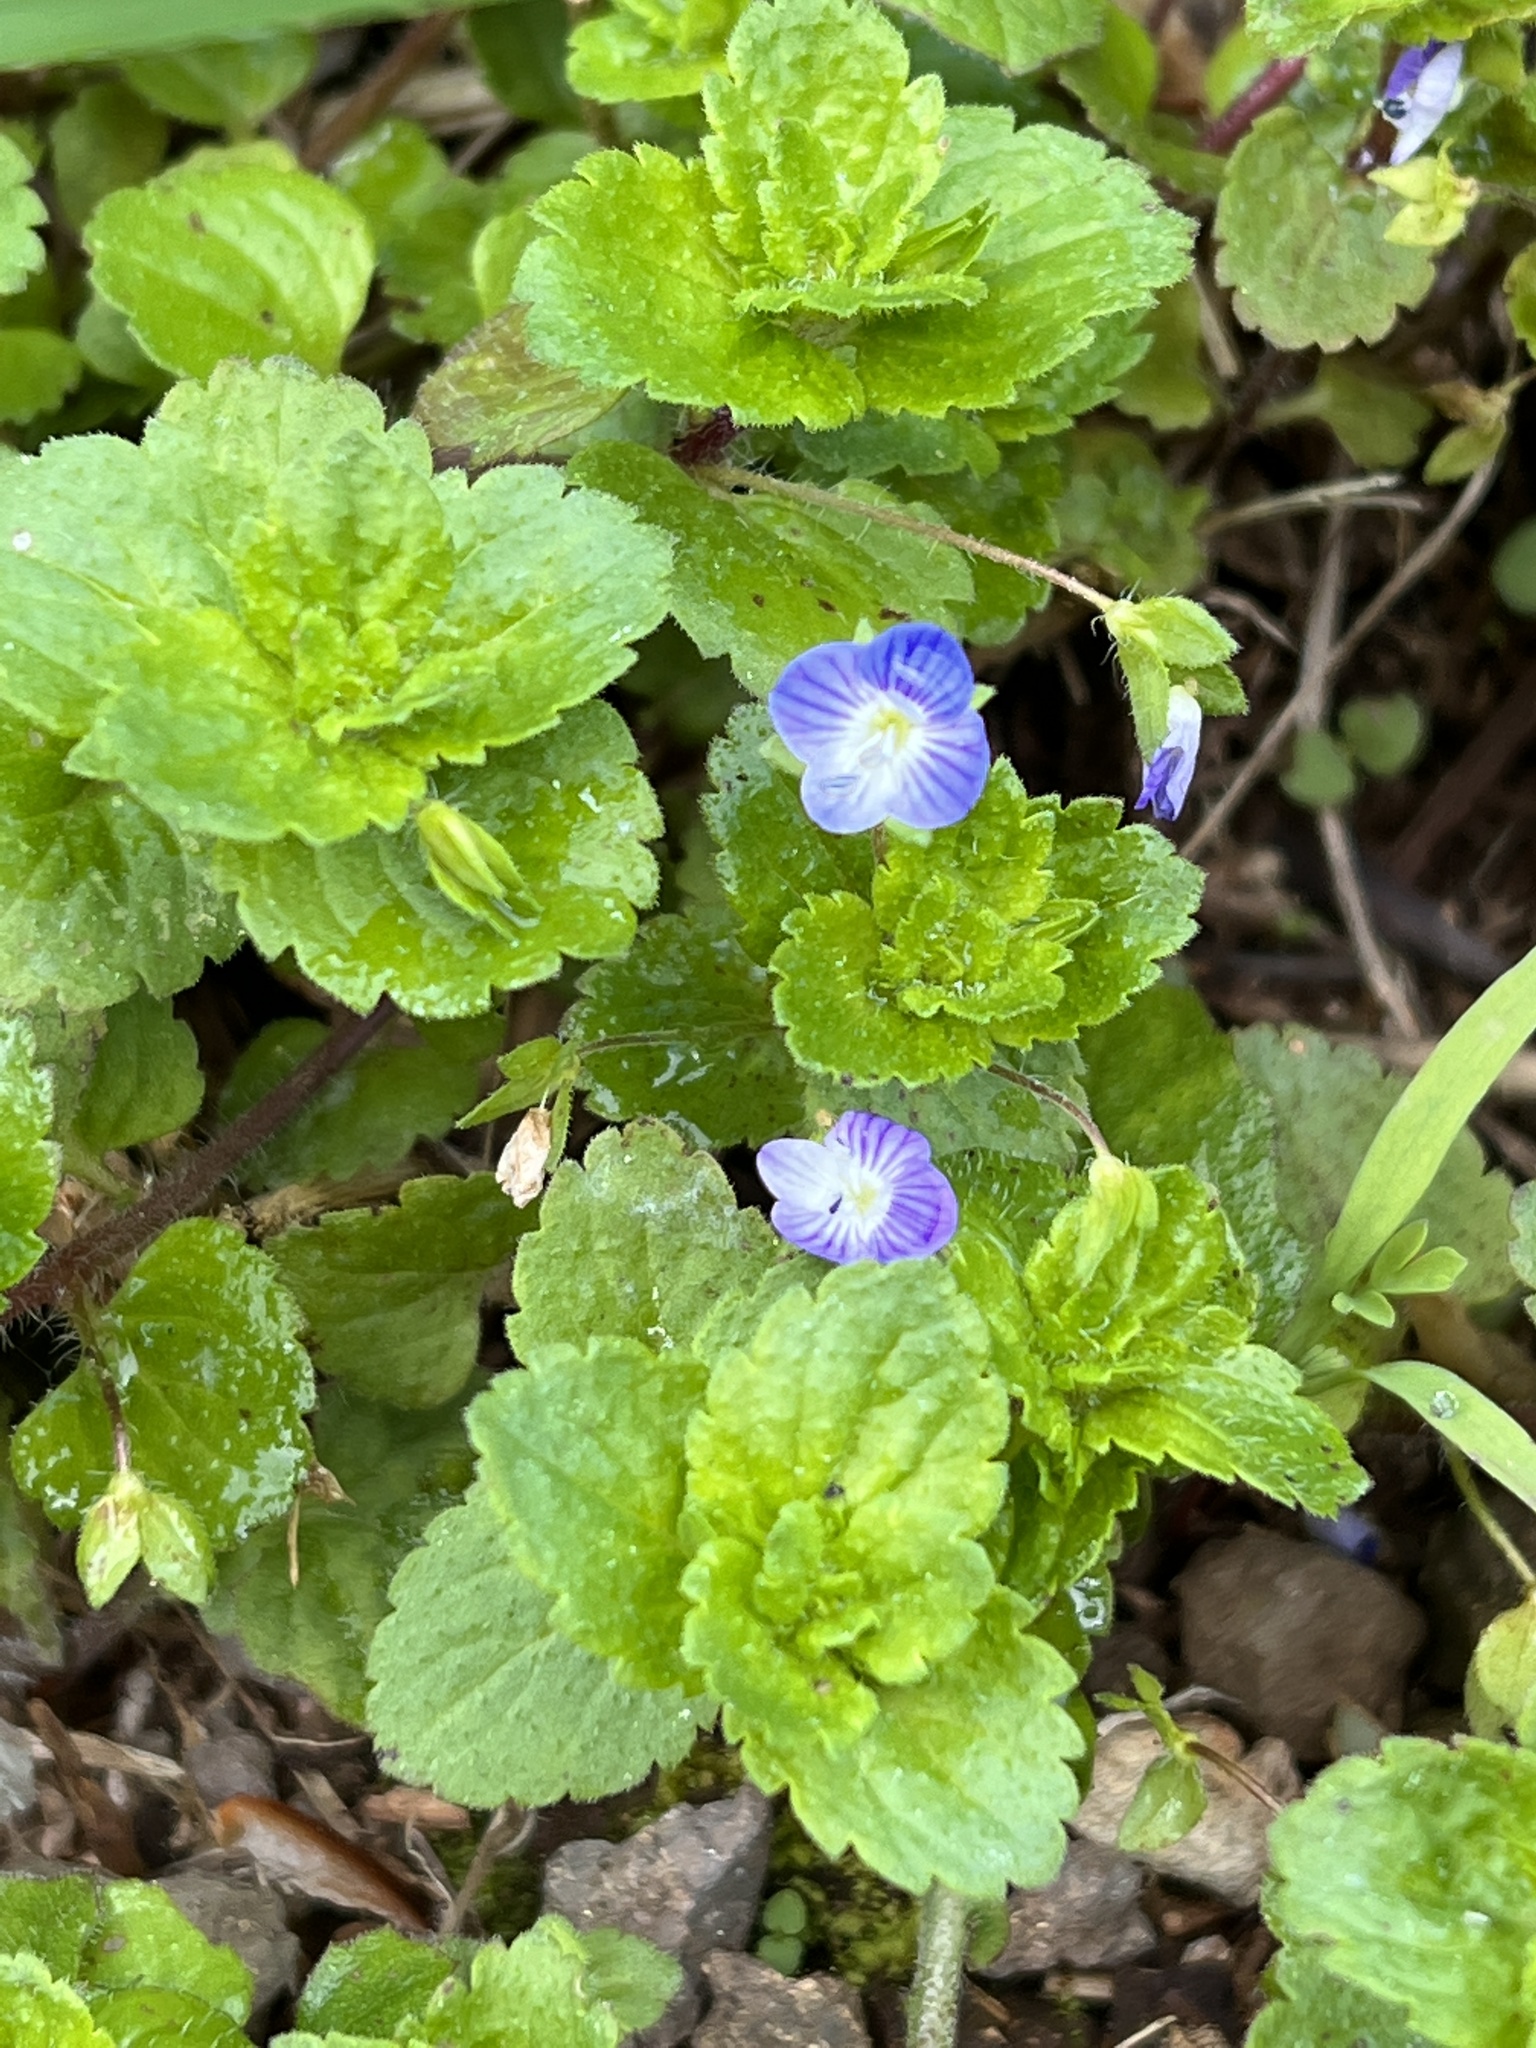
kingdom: Plantae
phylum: Tracheophyta
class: Magnoliopsida
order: Lamiales
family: Plantaginaceae
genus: Veronica
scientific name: Veronica persica
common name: Common field-speedwell
